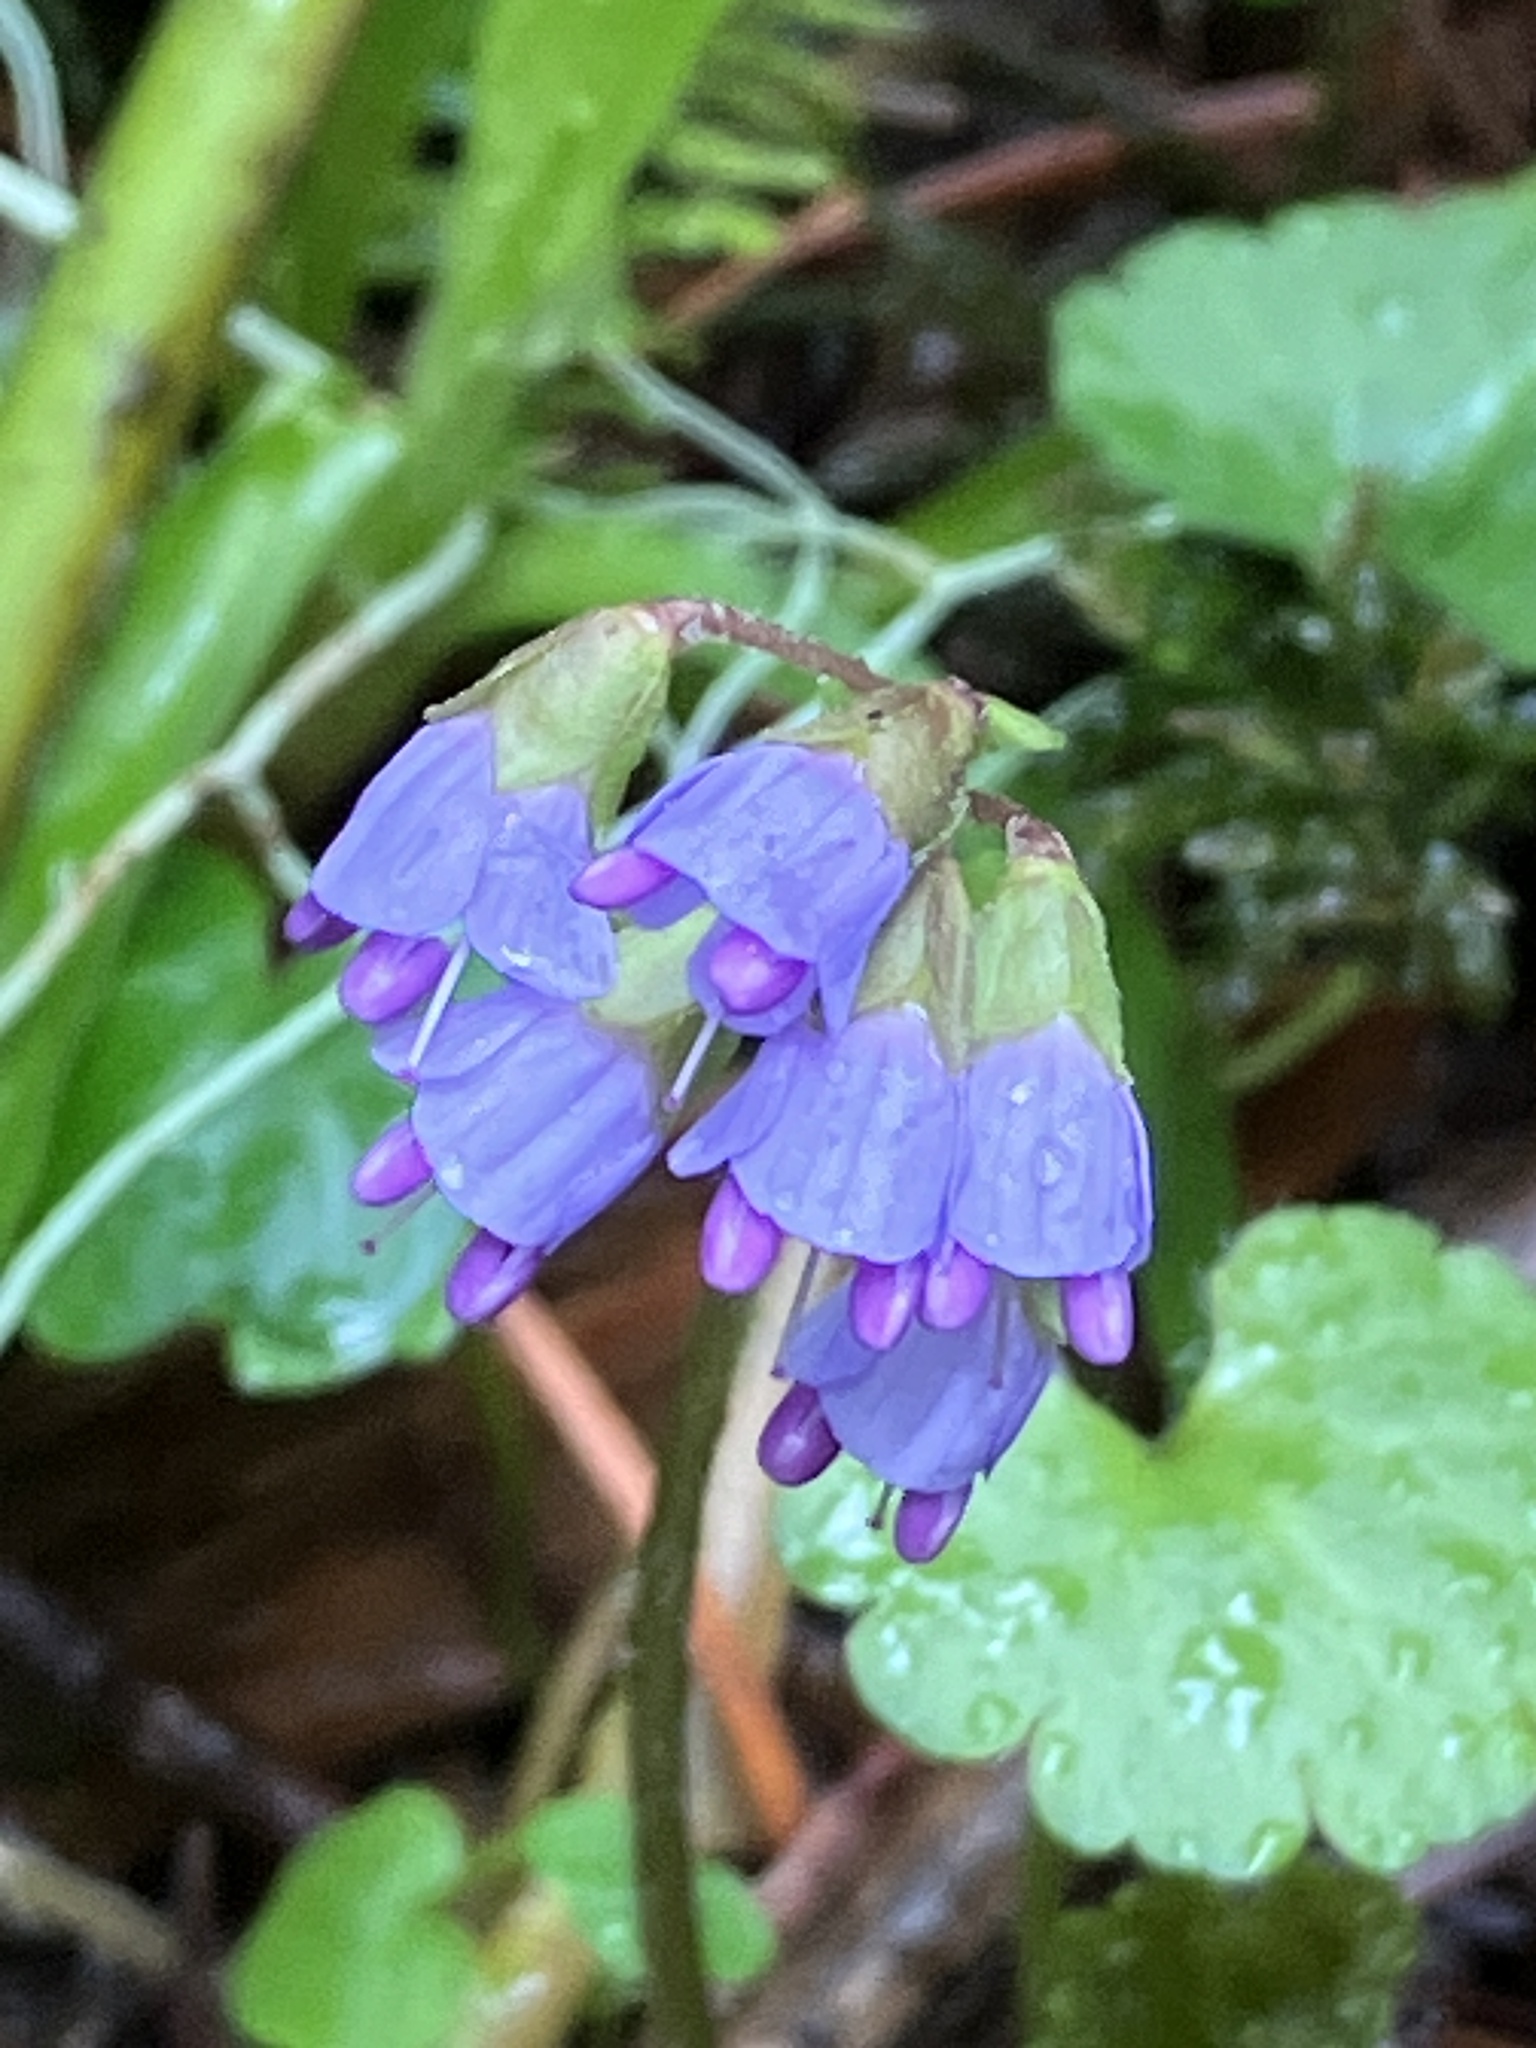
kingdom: Plantae
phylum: Tracheophyta
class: Magnoliopsida
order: Lamiales
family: Plantaginaceae
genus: Synthyris
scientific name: Synthyris reniformis
